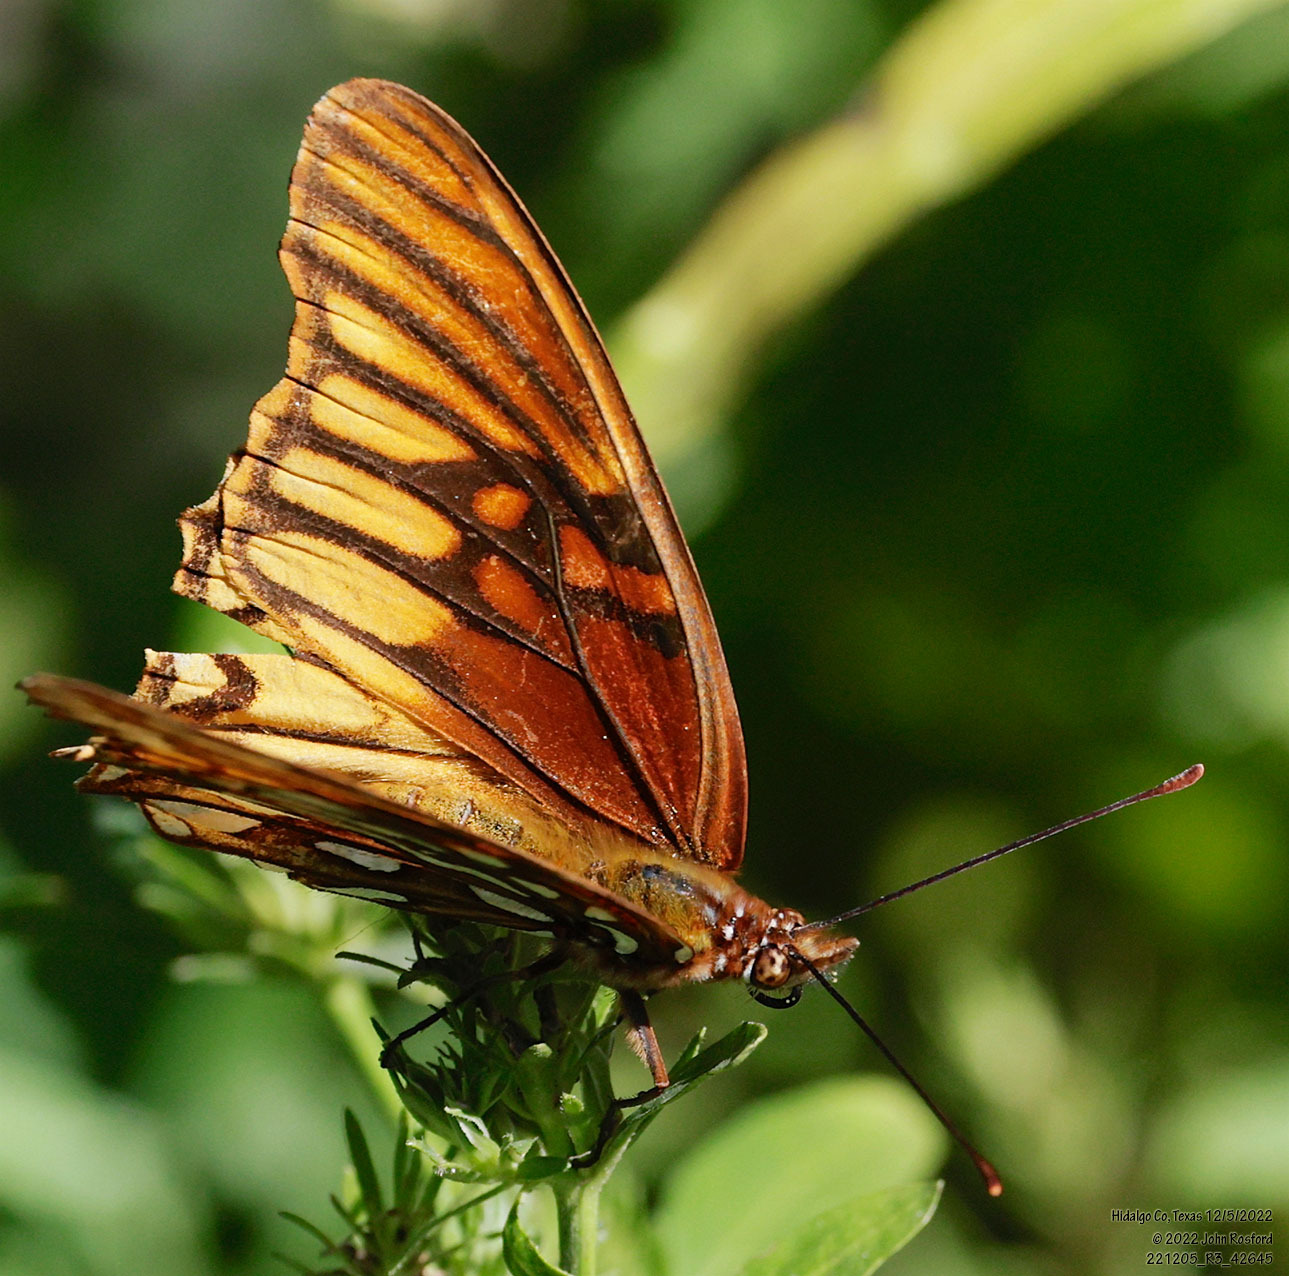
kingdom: Animalia
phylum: Arthropoda
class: Insecta
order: Lepidoptera
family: Nymphalidae
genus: Dione
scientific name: Dione moneta
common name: Mexican silverspot
